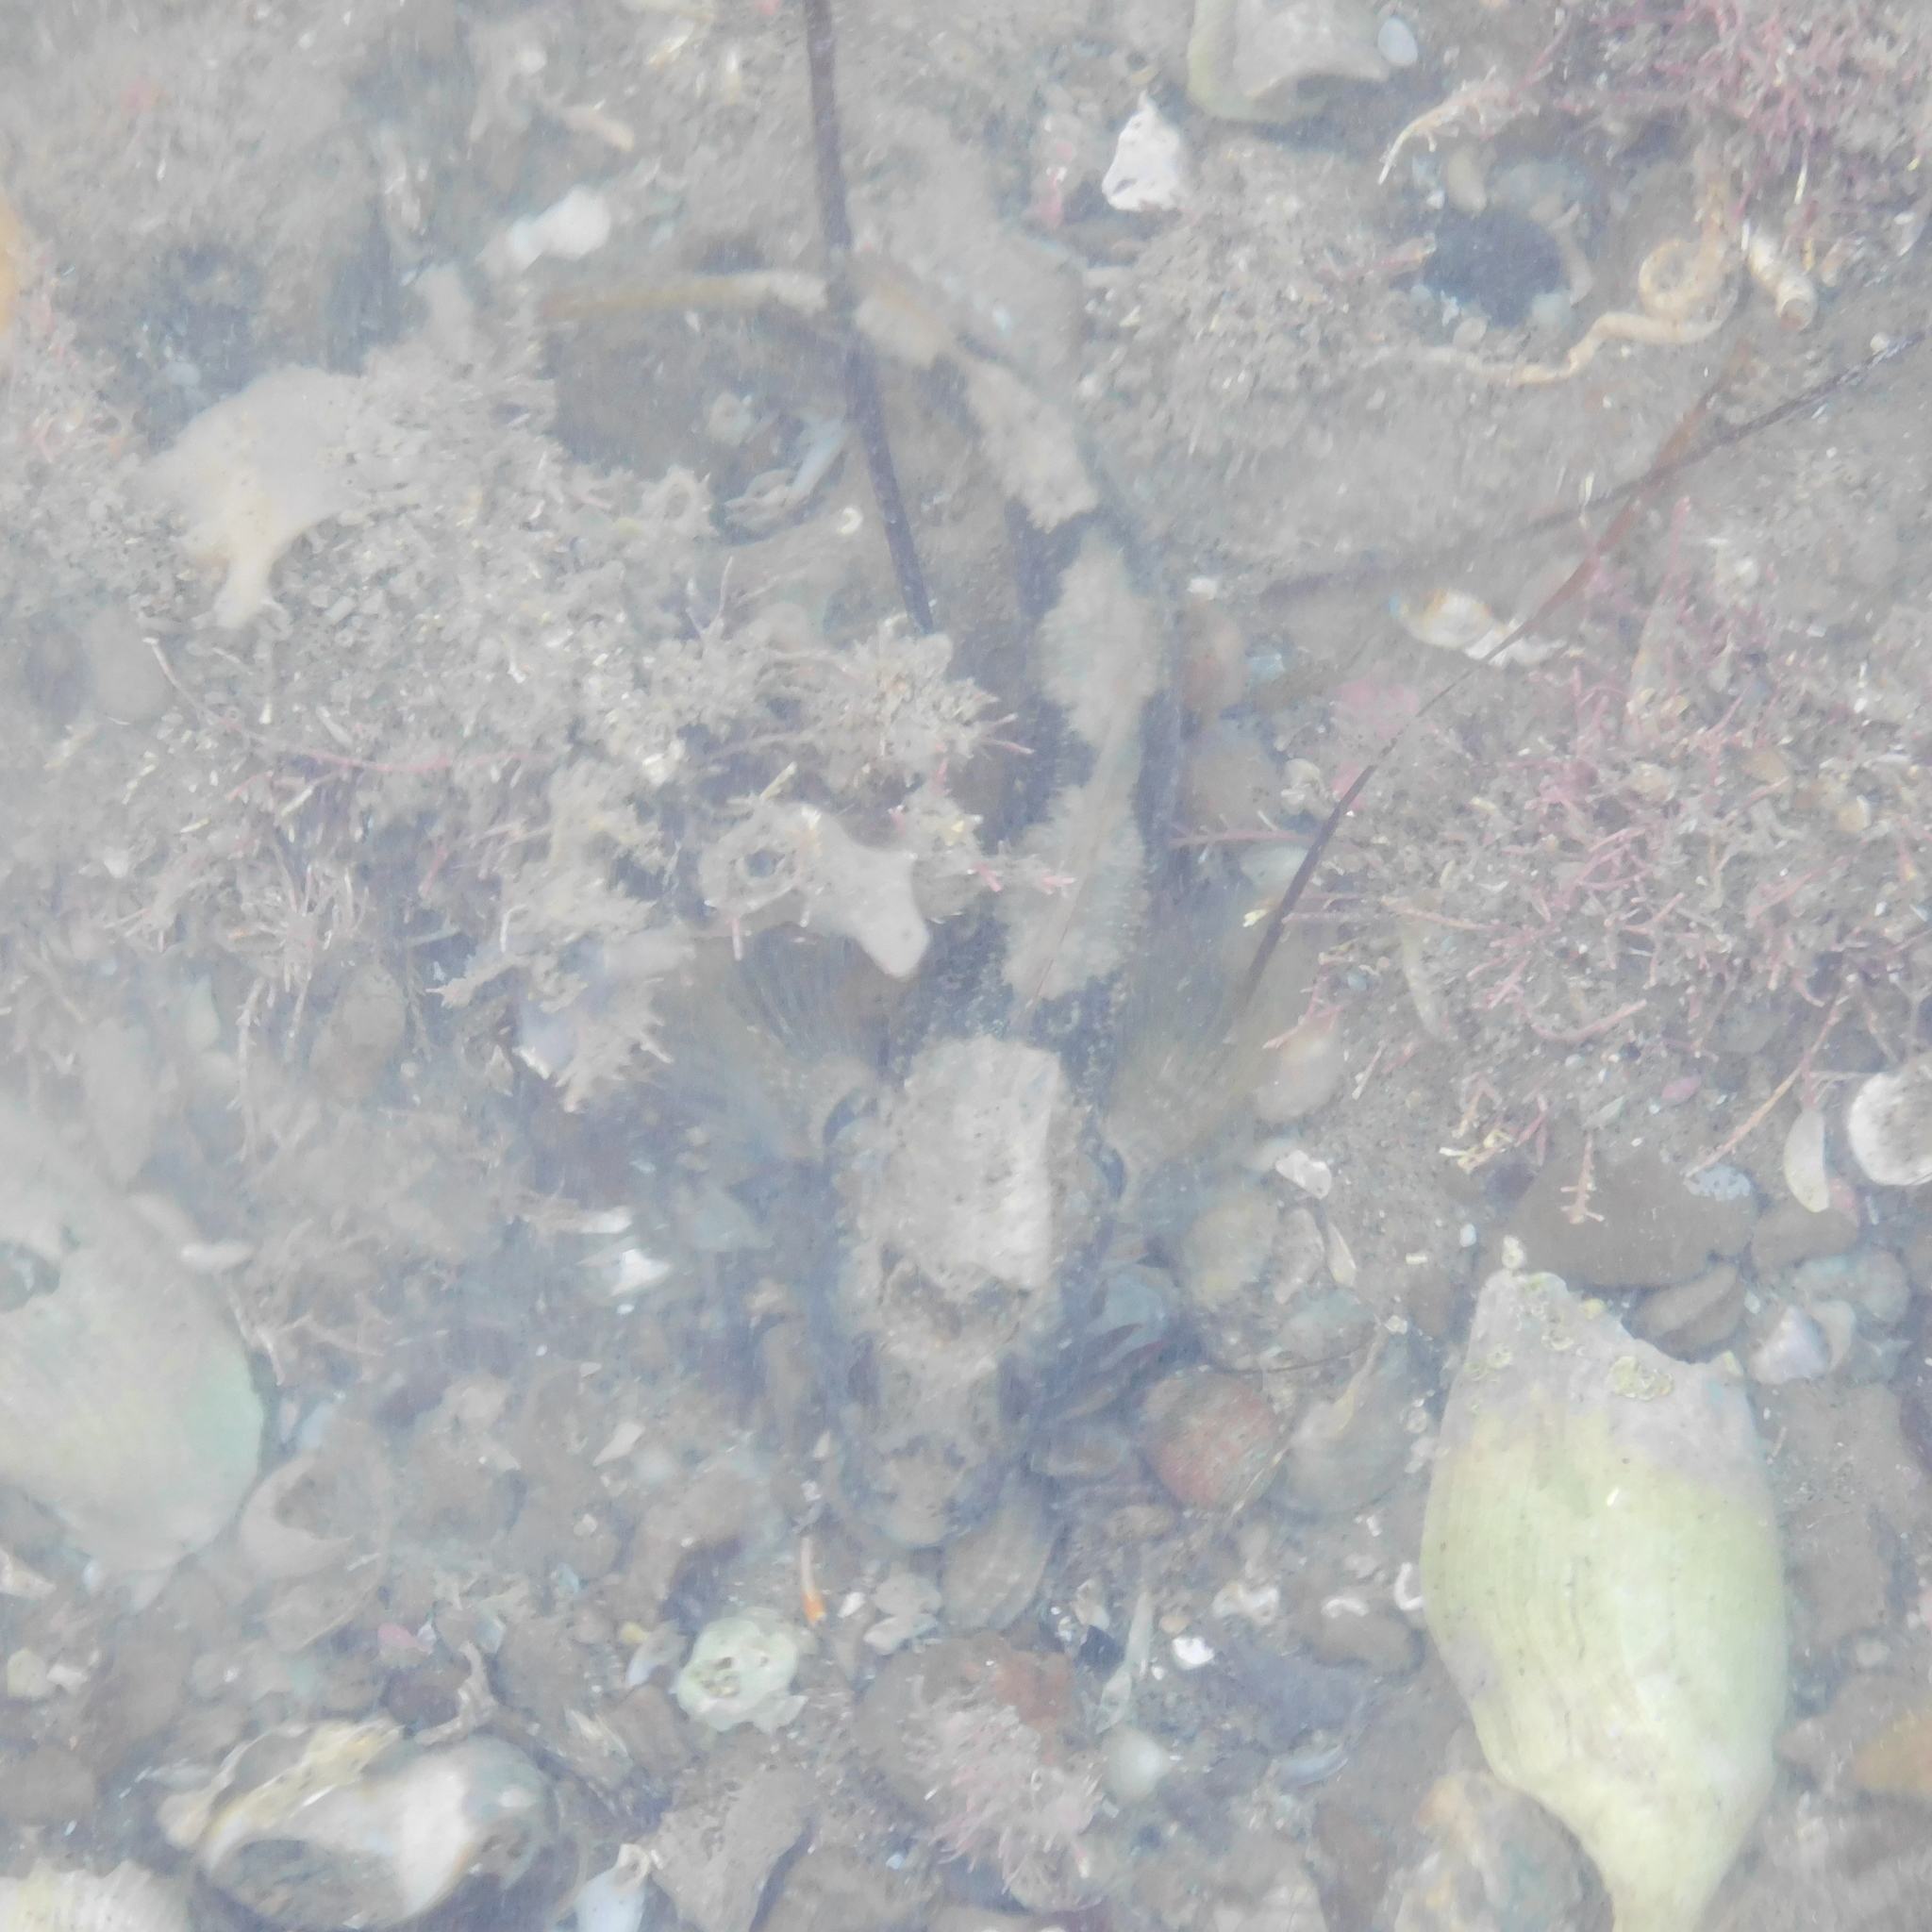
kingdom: Animalia
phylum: Chordata
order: Perciformes
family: Tripterygiidae
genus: Forsterygion
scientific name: Forsterygion capito
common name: Spotted robust triplefin
